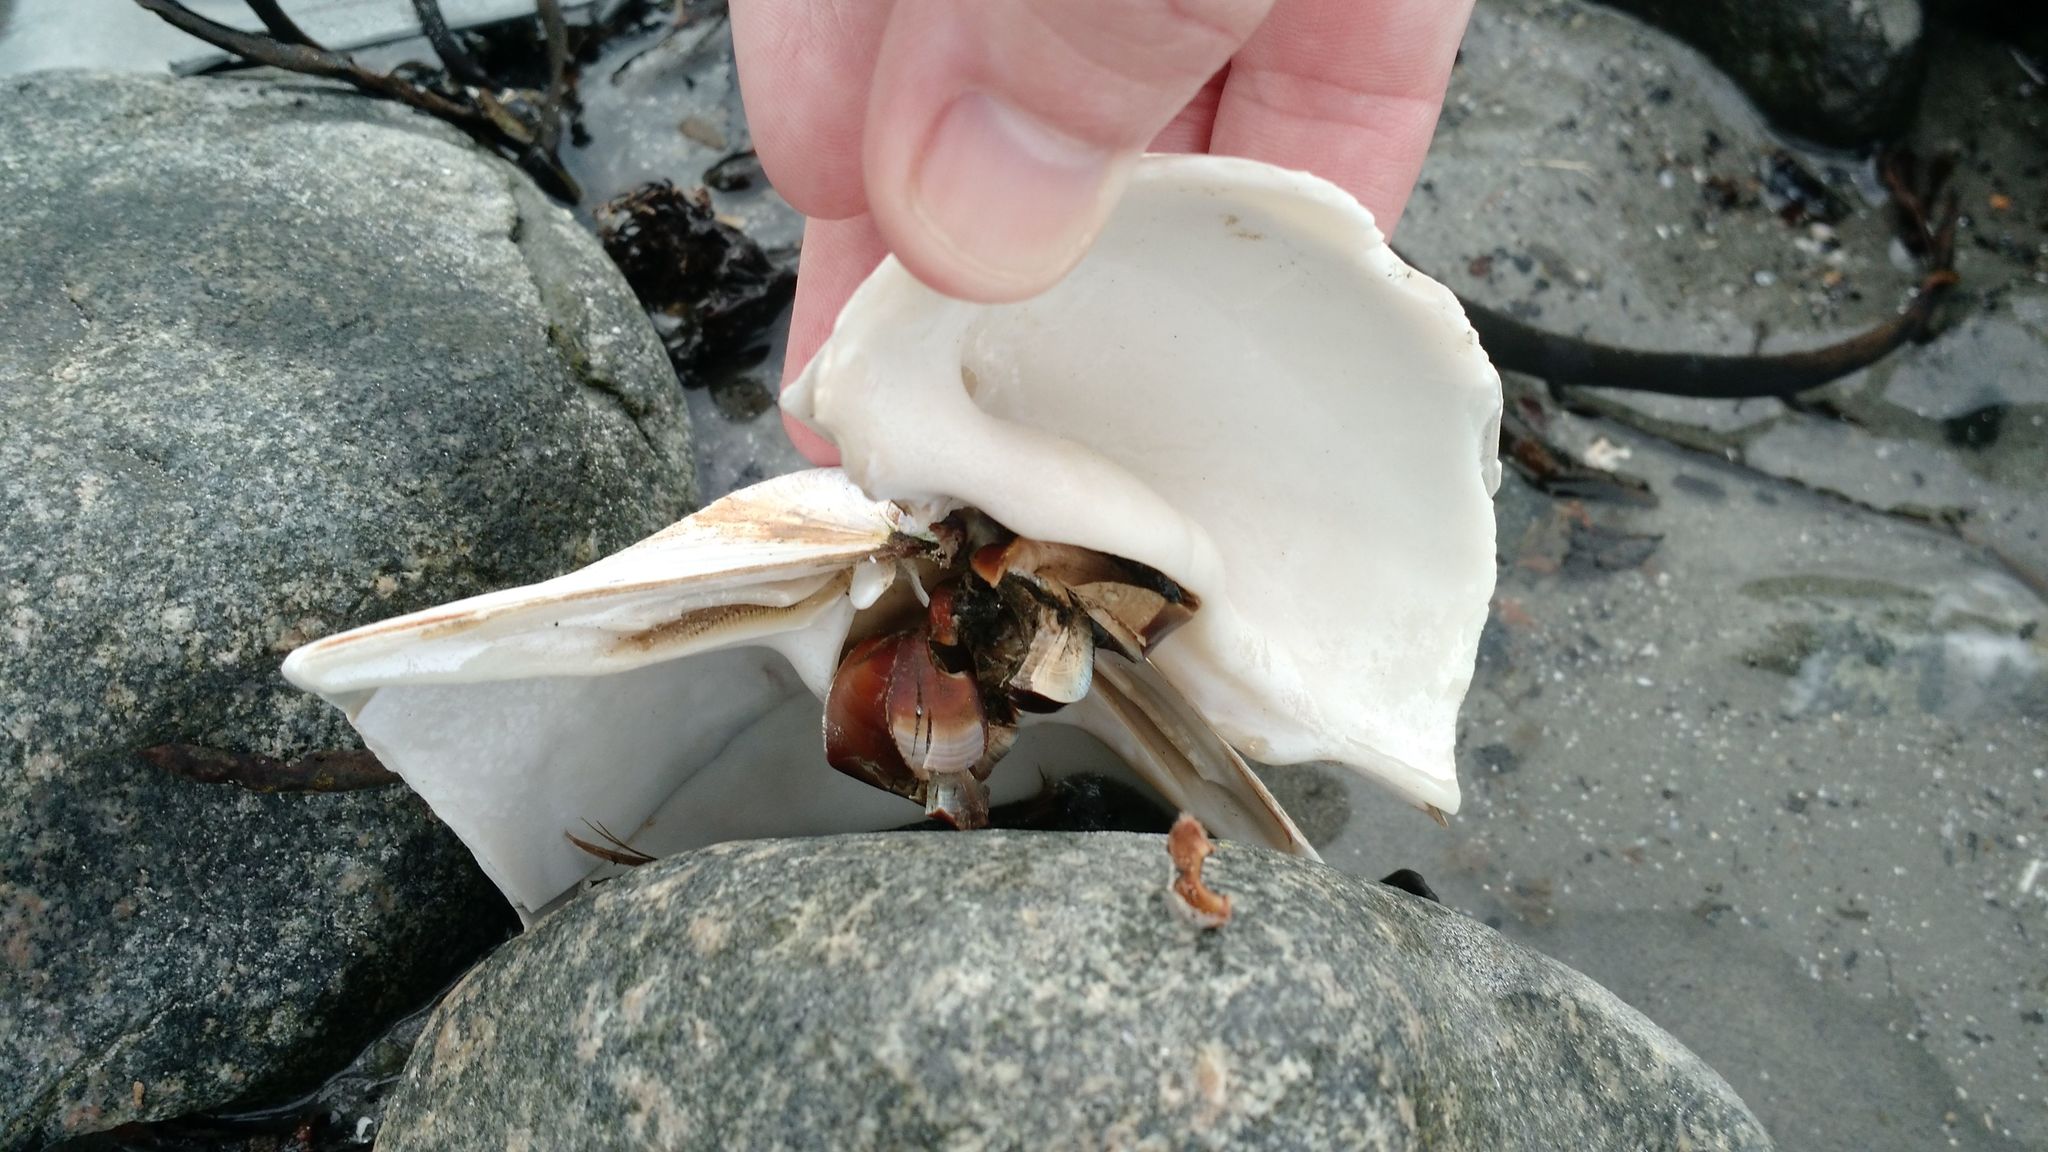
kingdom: Animalia
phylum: Mollusca
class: Bivalvia
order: Venerida
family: Mactridae
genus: Spisula
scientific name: Spisula solidissima
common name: Atlantic surf clam
